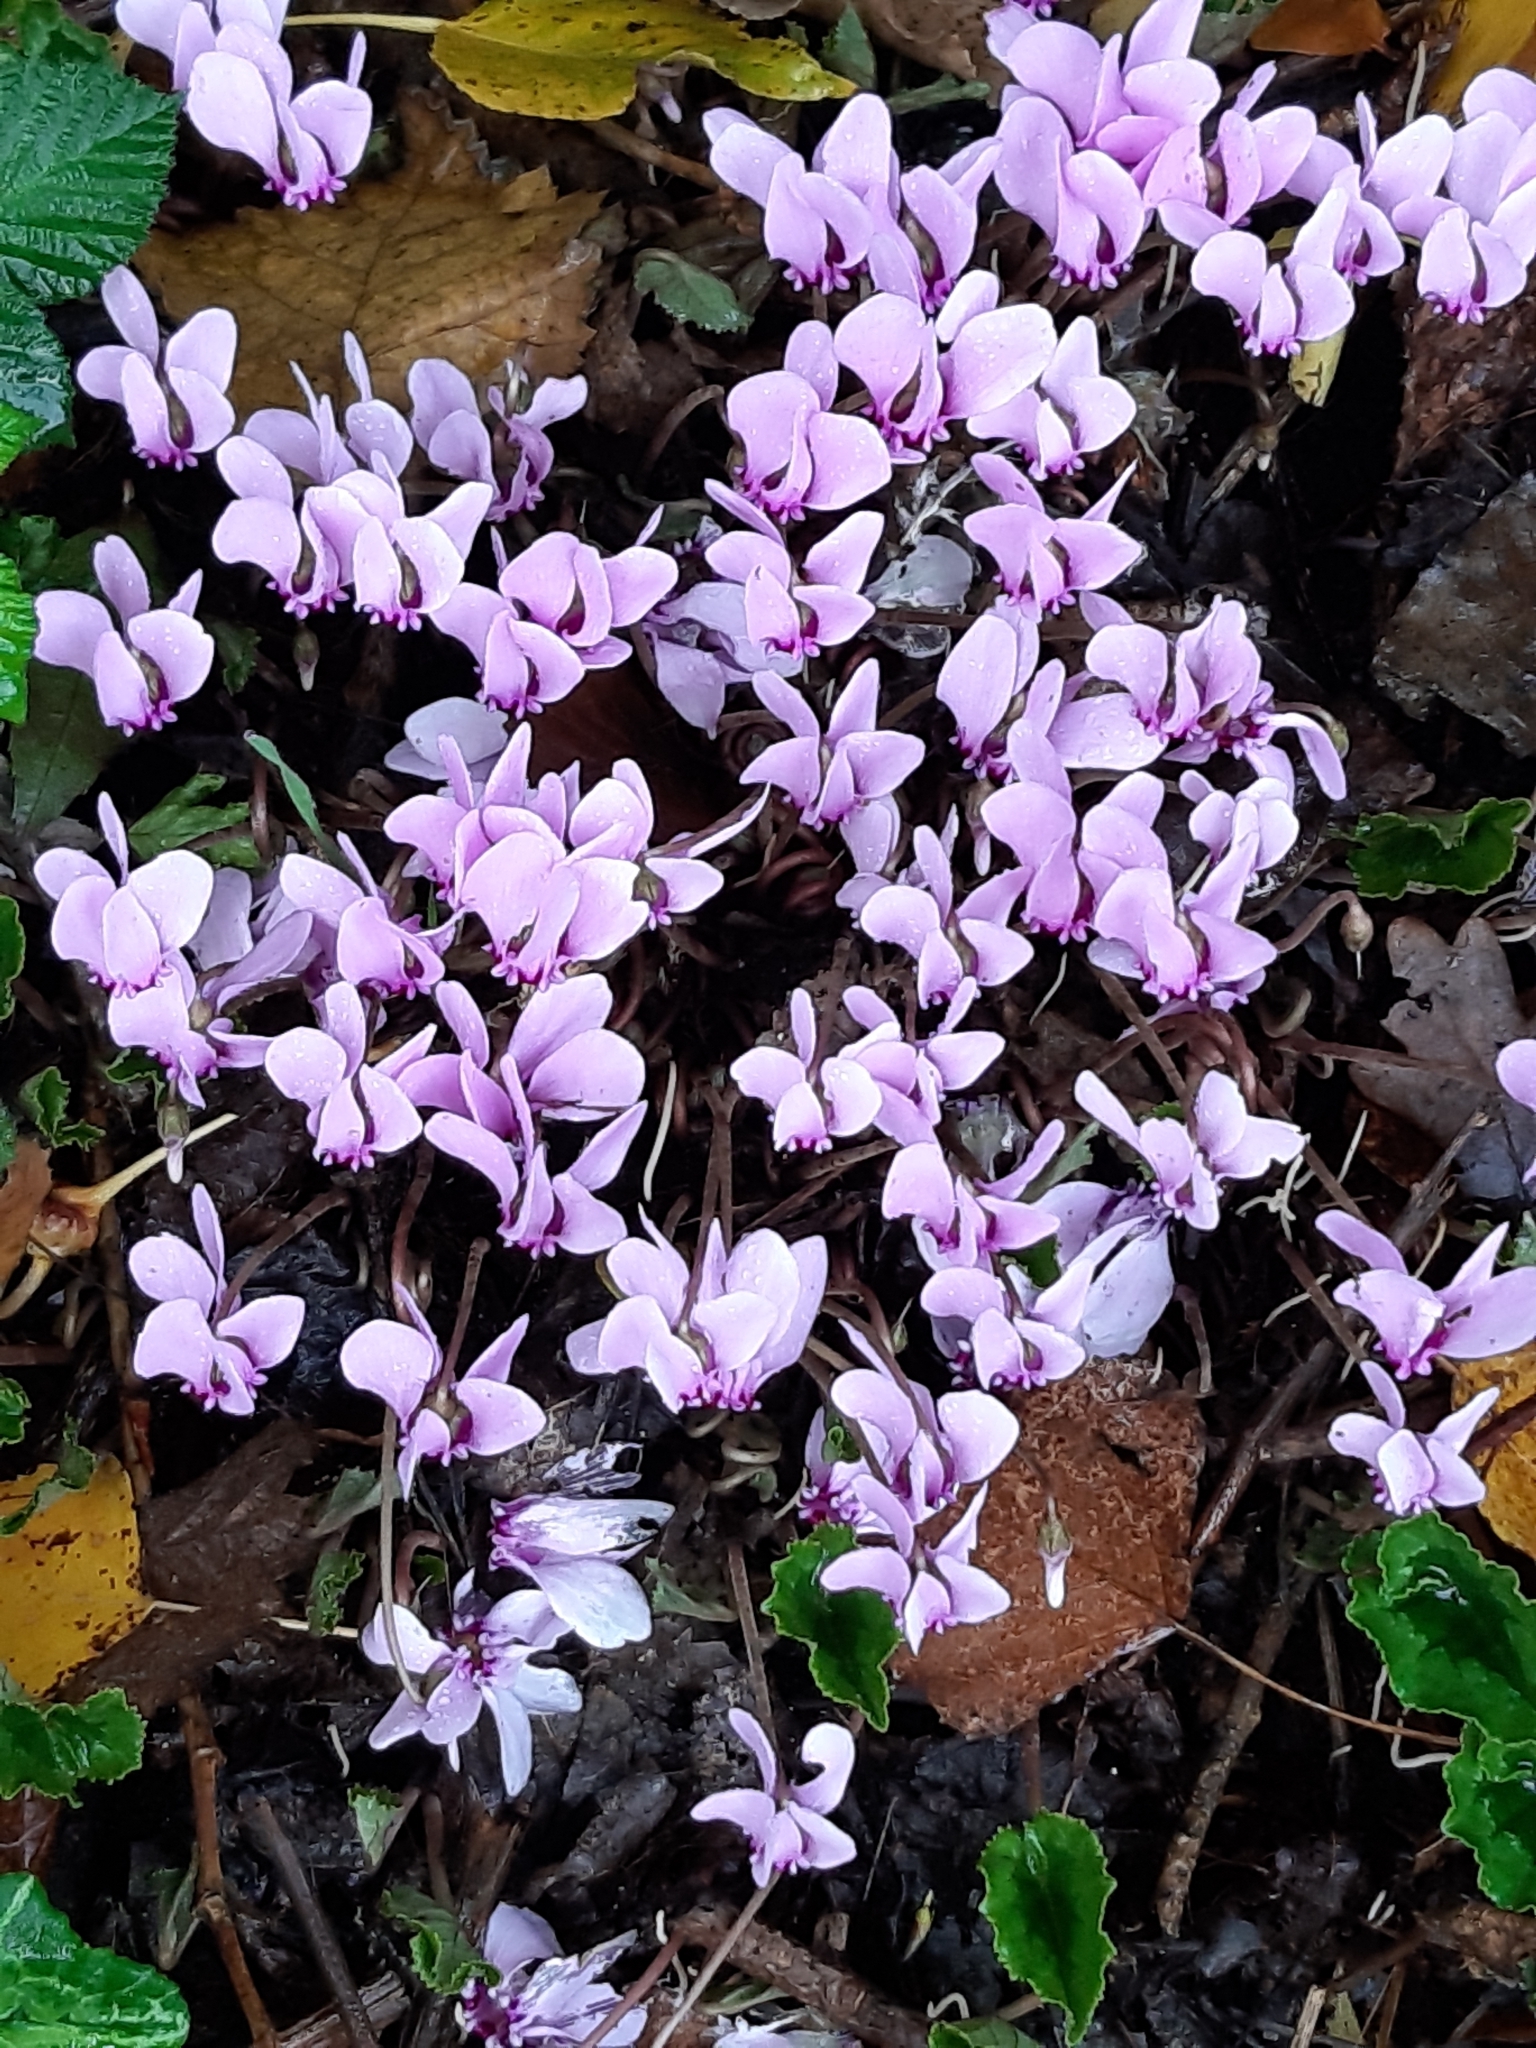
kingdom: Plantae
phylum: Tracheophyta
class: Magnoliopsida
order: Ericales
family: Primulaceae
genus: Cyclamen
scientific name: Cyclamen hederifolium
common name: Sowbread
